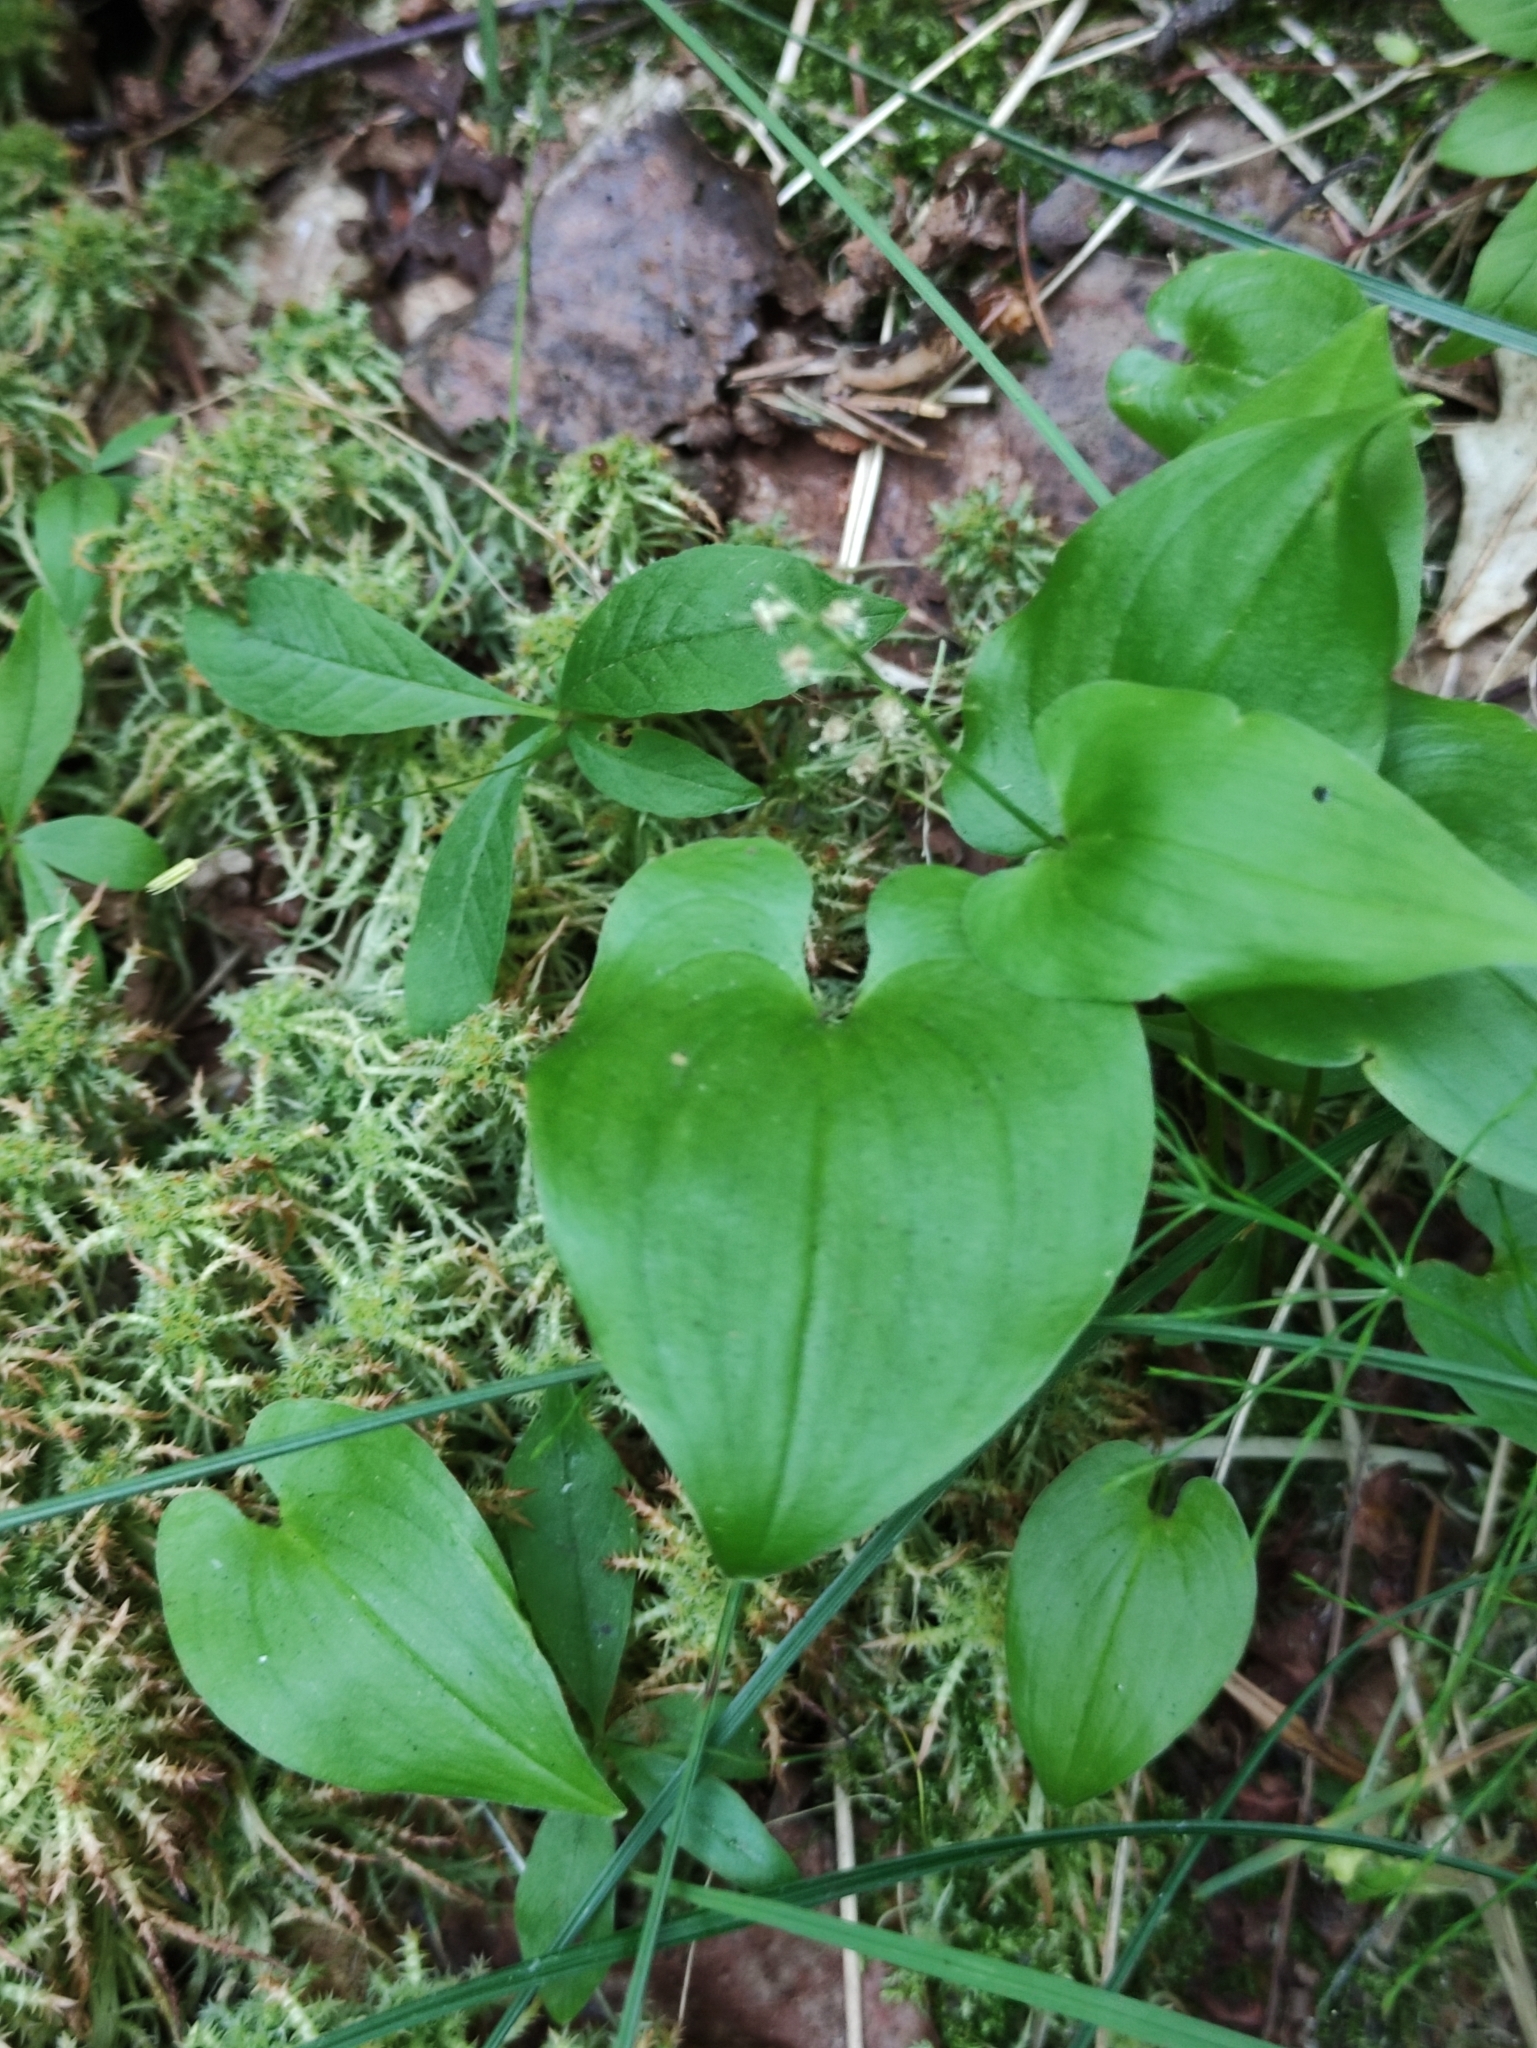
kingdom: Plantae
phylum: Tracheophyta
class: Liliopsida
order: Asparagales
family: Asparagaceae
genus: Maianthemum
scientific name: Maianthemum bifolium
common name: May lily
